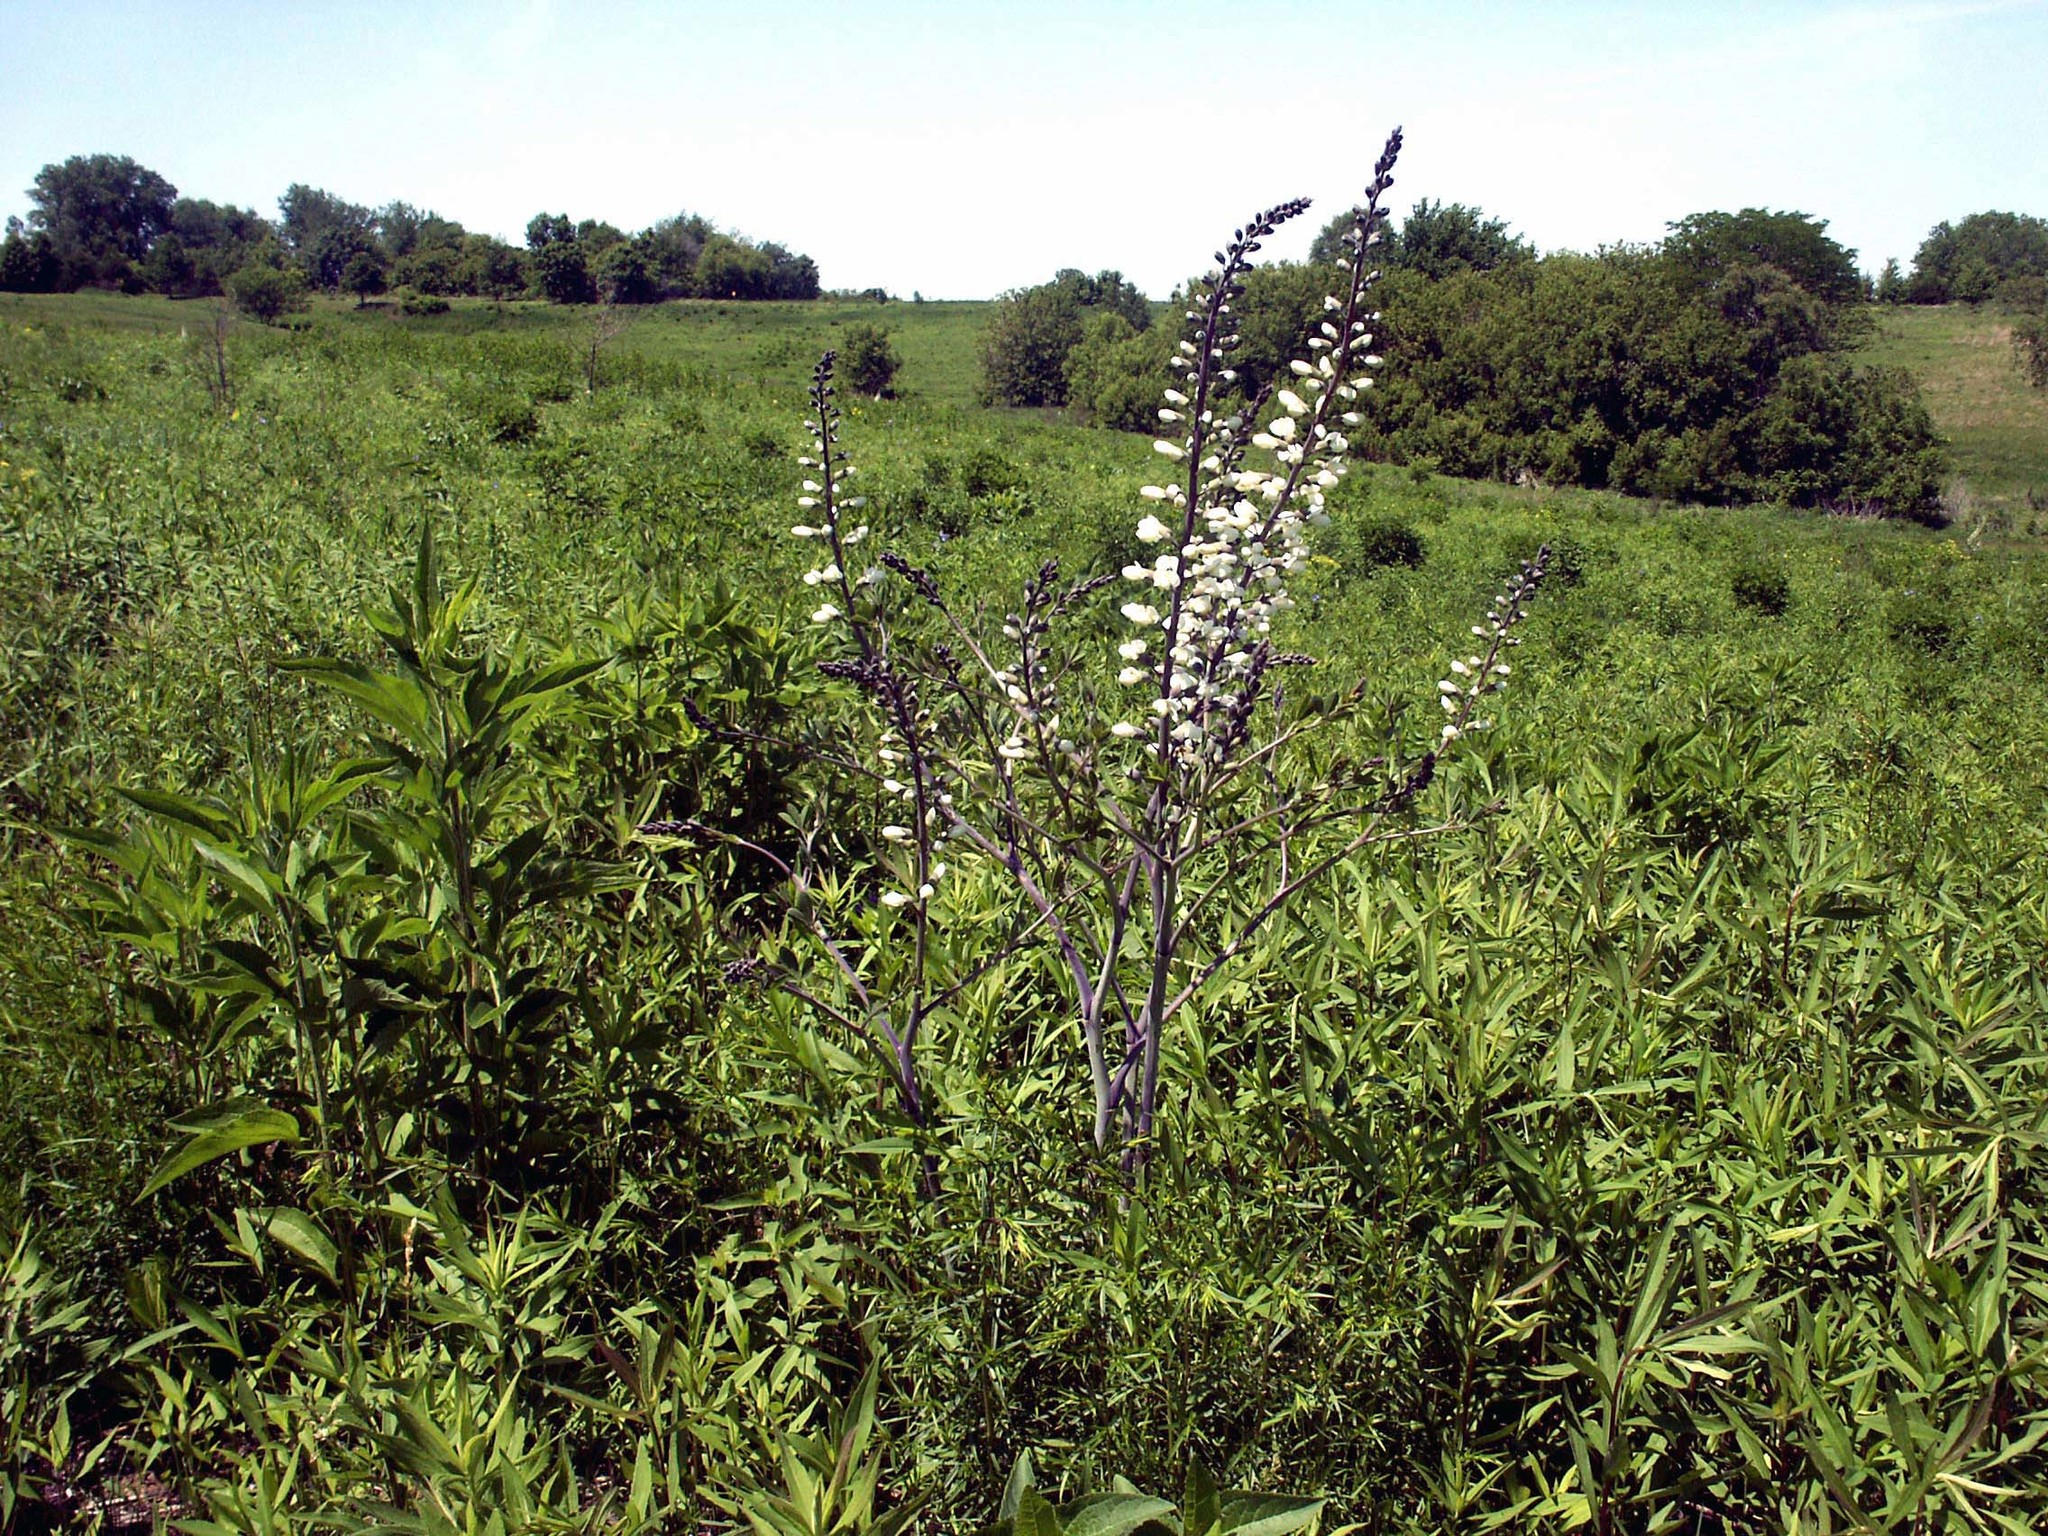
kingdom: Plantae
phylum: Tracheophyta
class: Magnoliopsida
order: Fabales
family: Fabaceae
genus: Baptisia
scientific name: Baptisia alba
